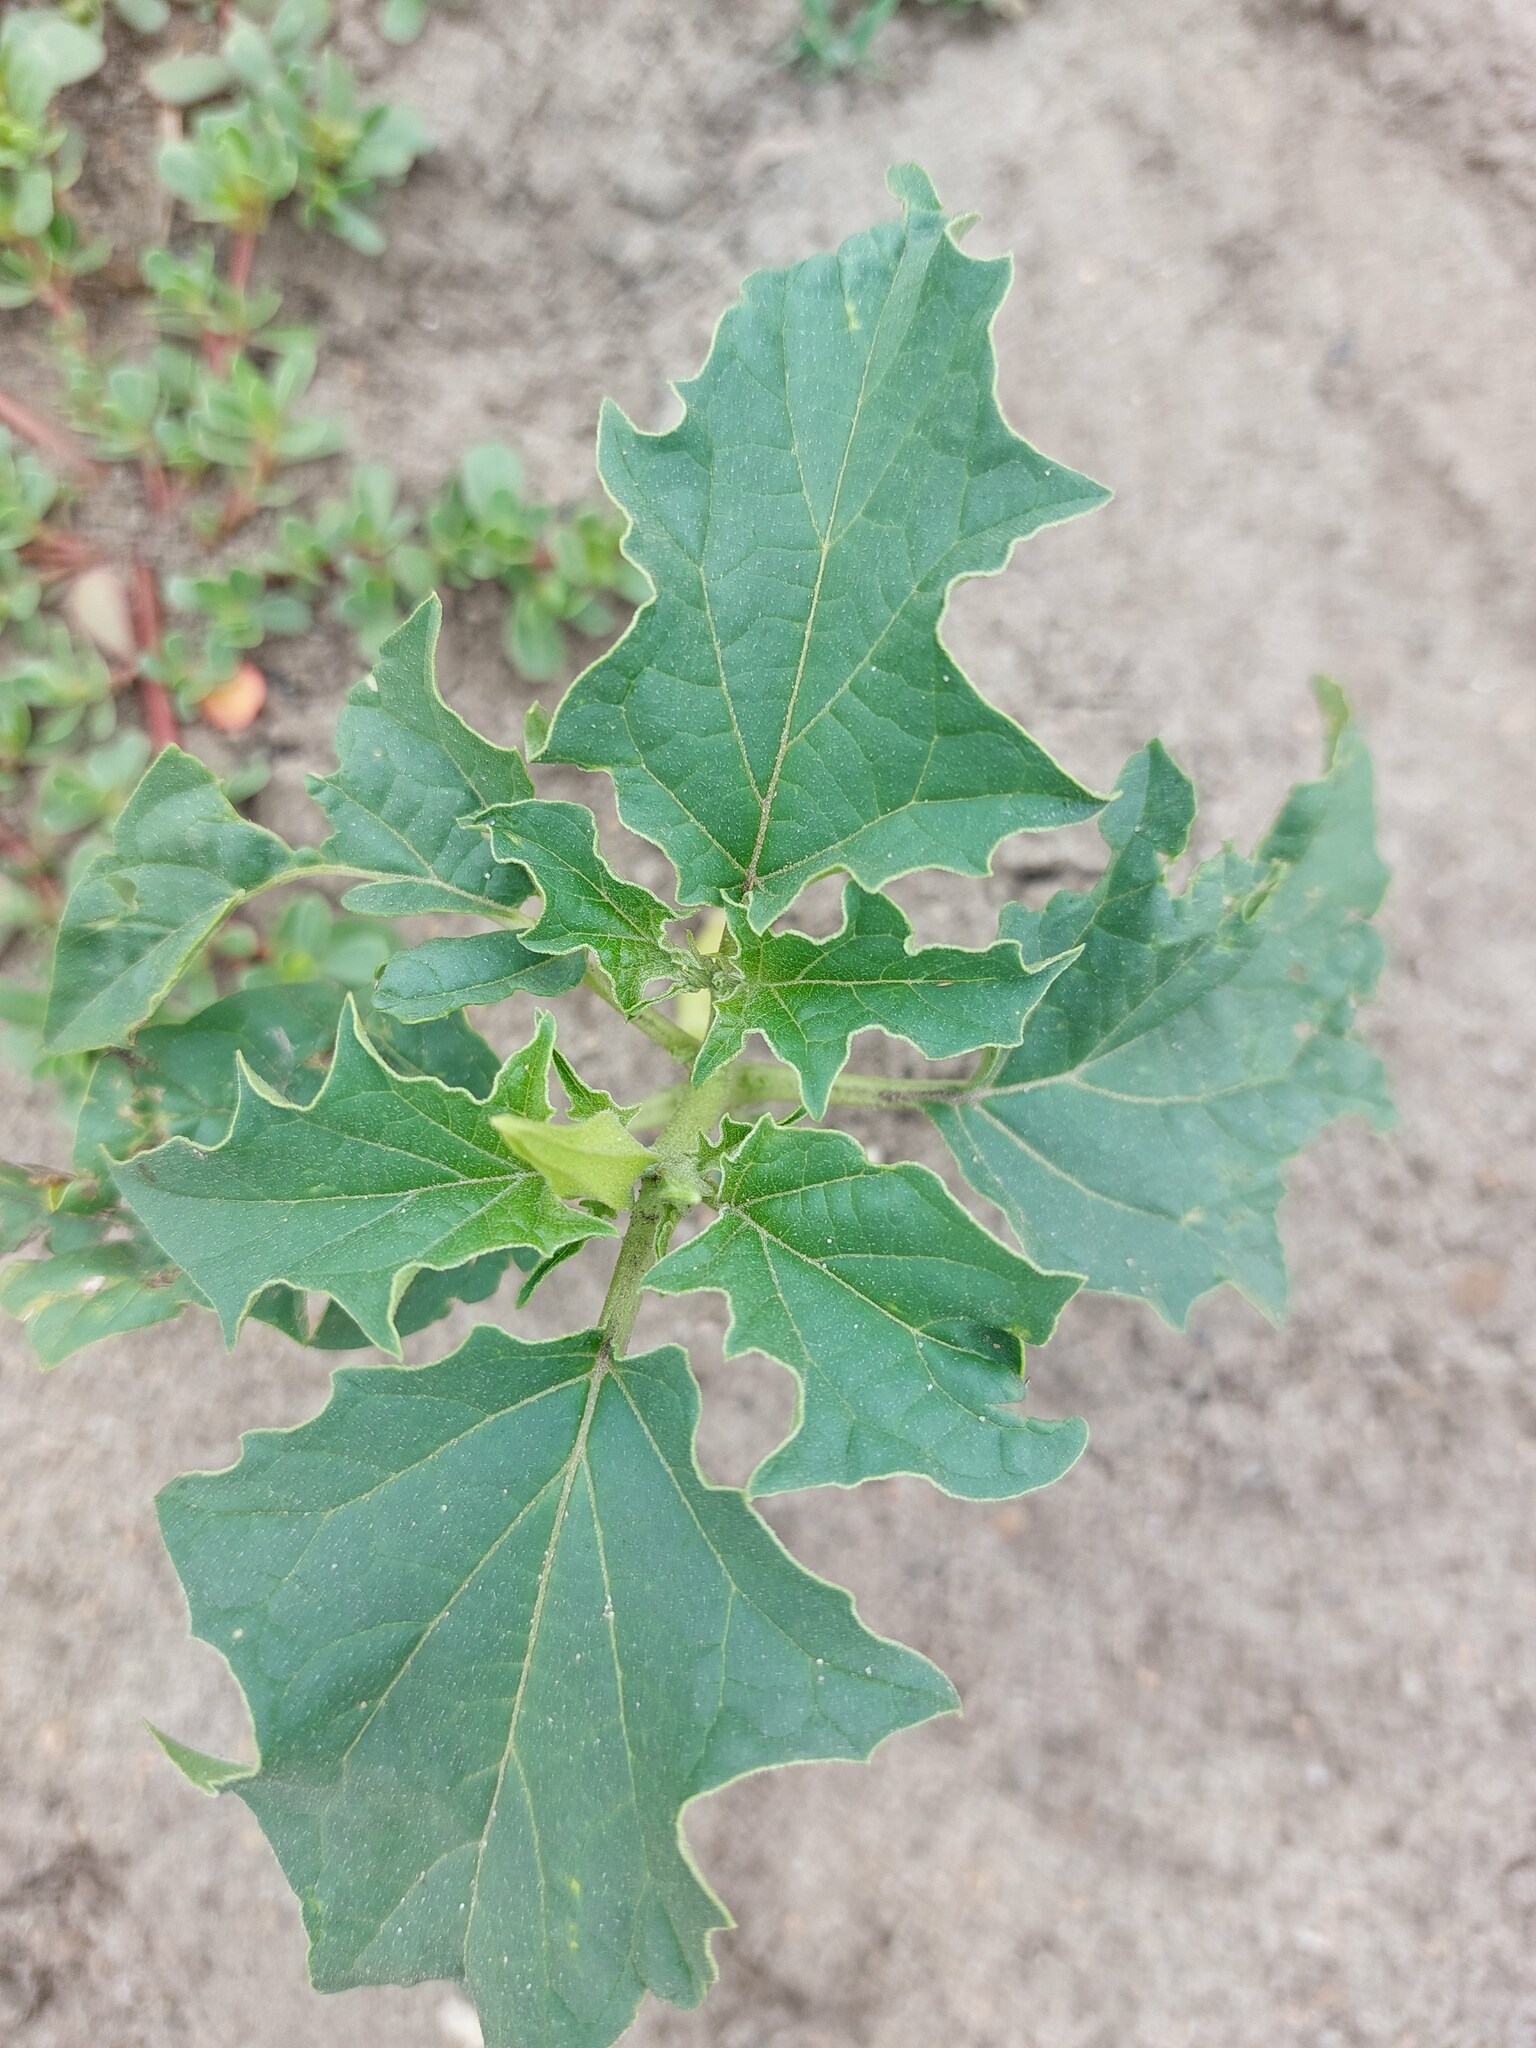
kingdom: Plantae
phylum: Tracheophyta
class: Magnoliopsida
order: Solanales
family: Solanaceae
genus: Datura
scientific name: Datura stramonium
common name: Thorn-apple
